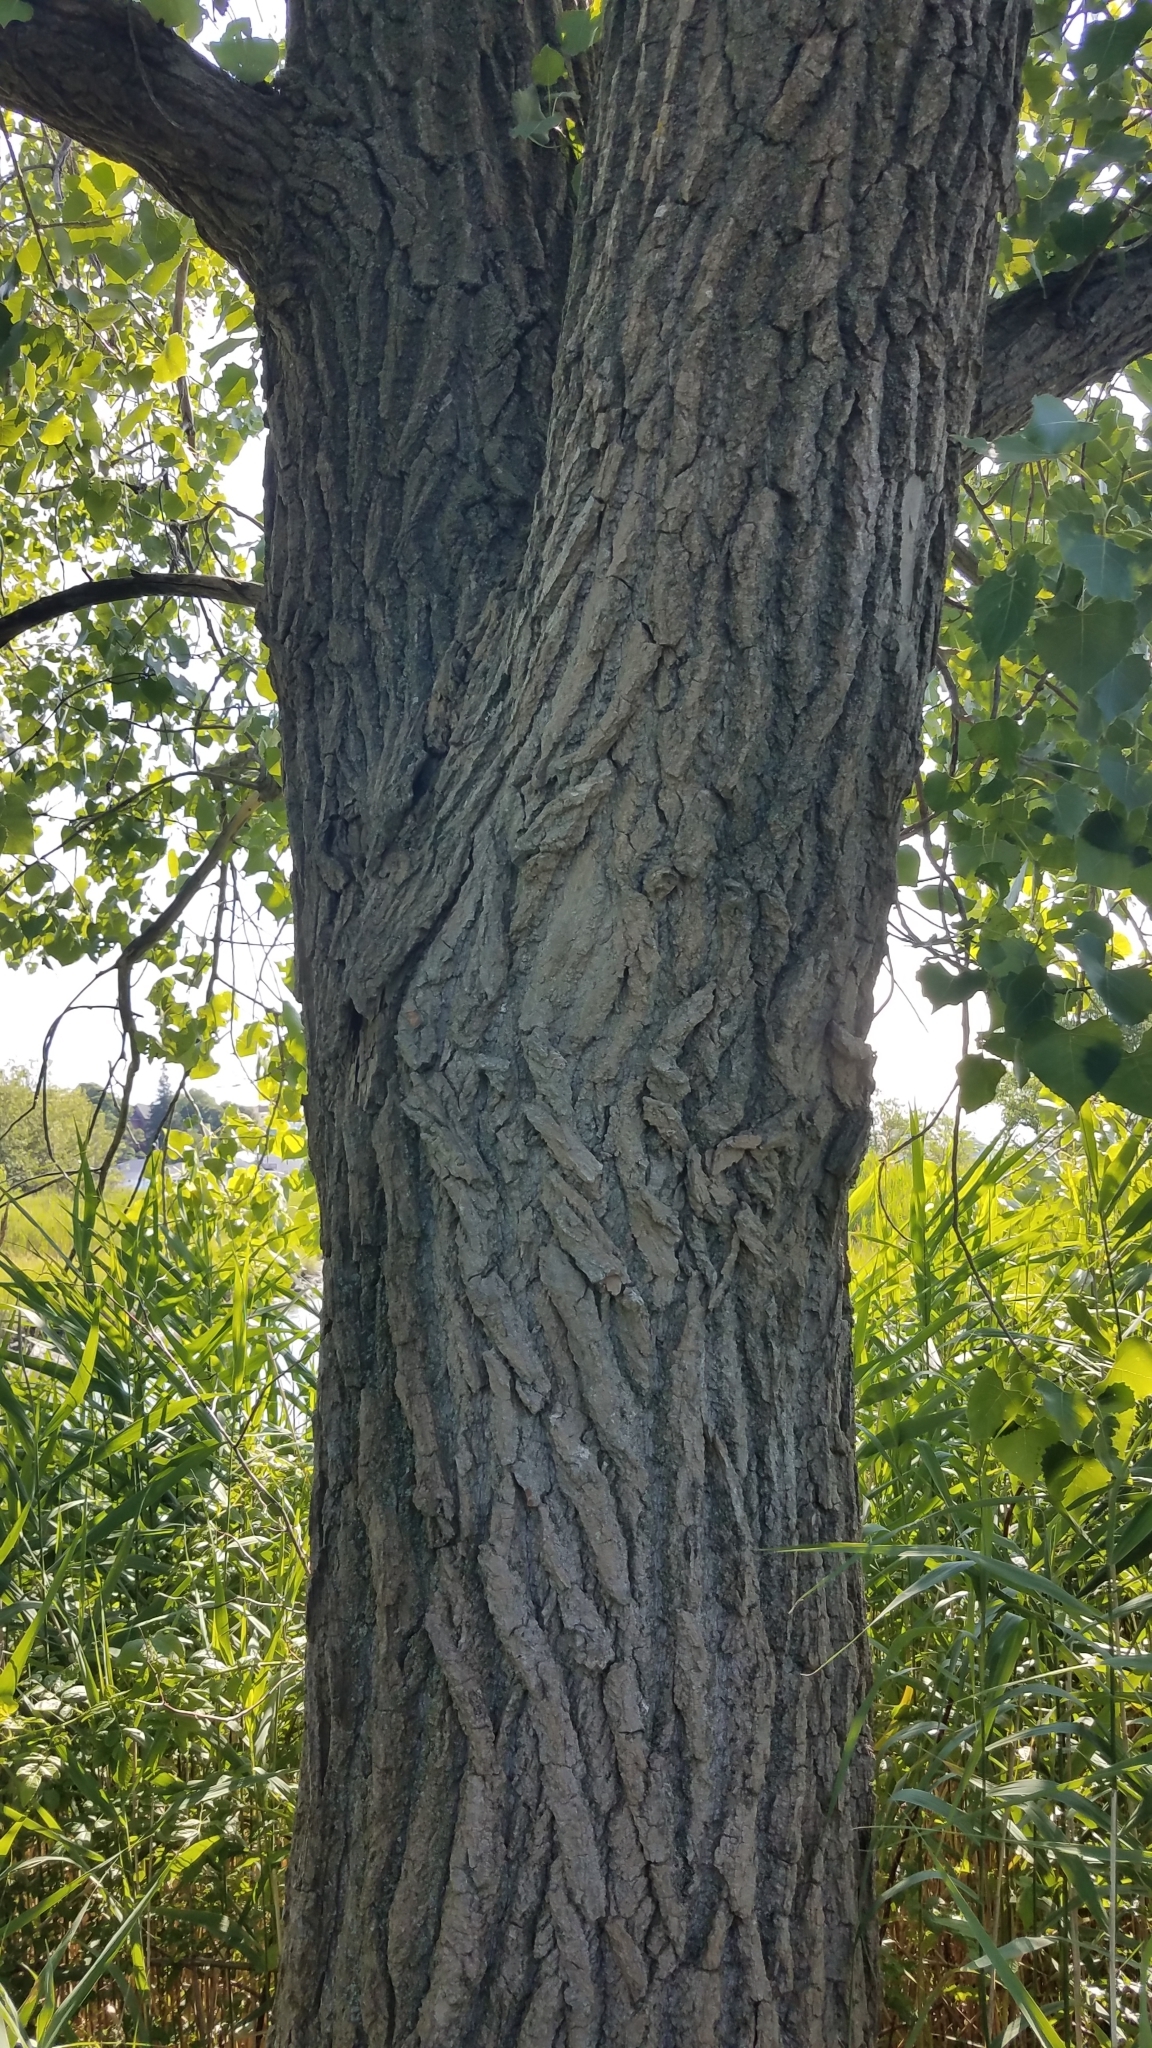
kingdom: Plantae
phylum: Tracheophyta
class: Magnoliopsida
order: Malpighiales
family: Salicaceae
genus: Populus
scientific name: Populus deltoides
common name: Eastern cottonwood
